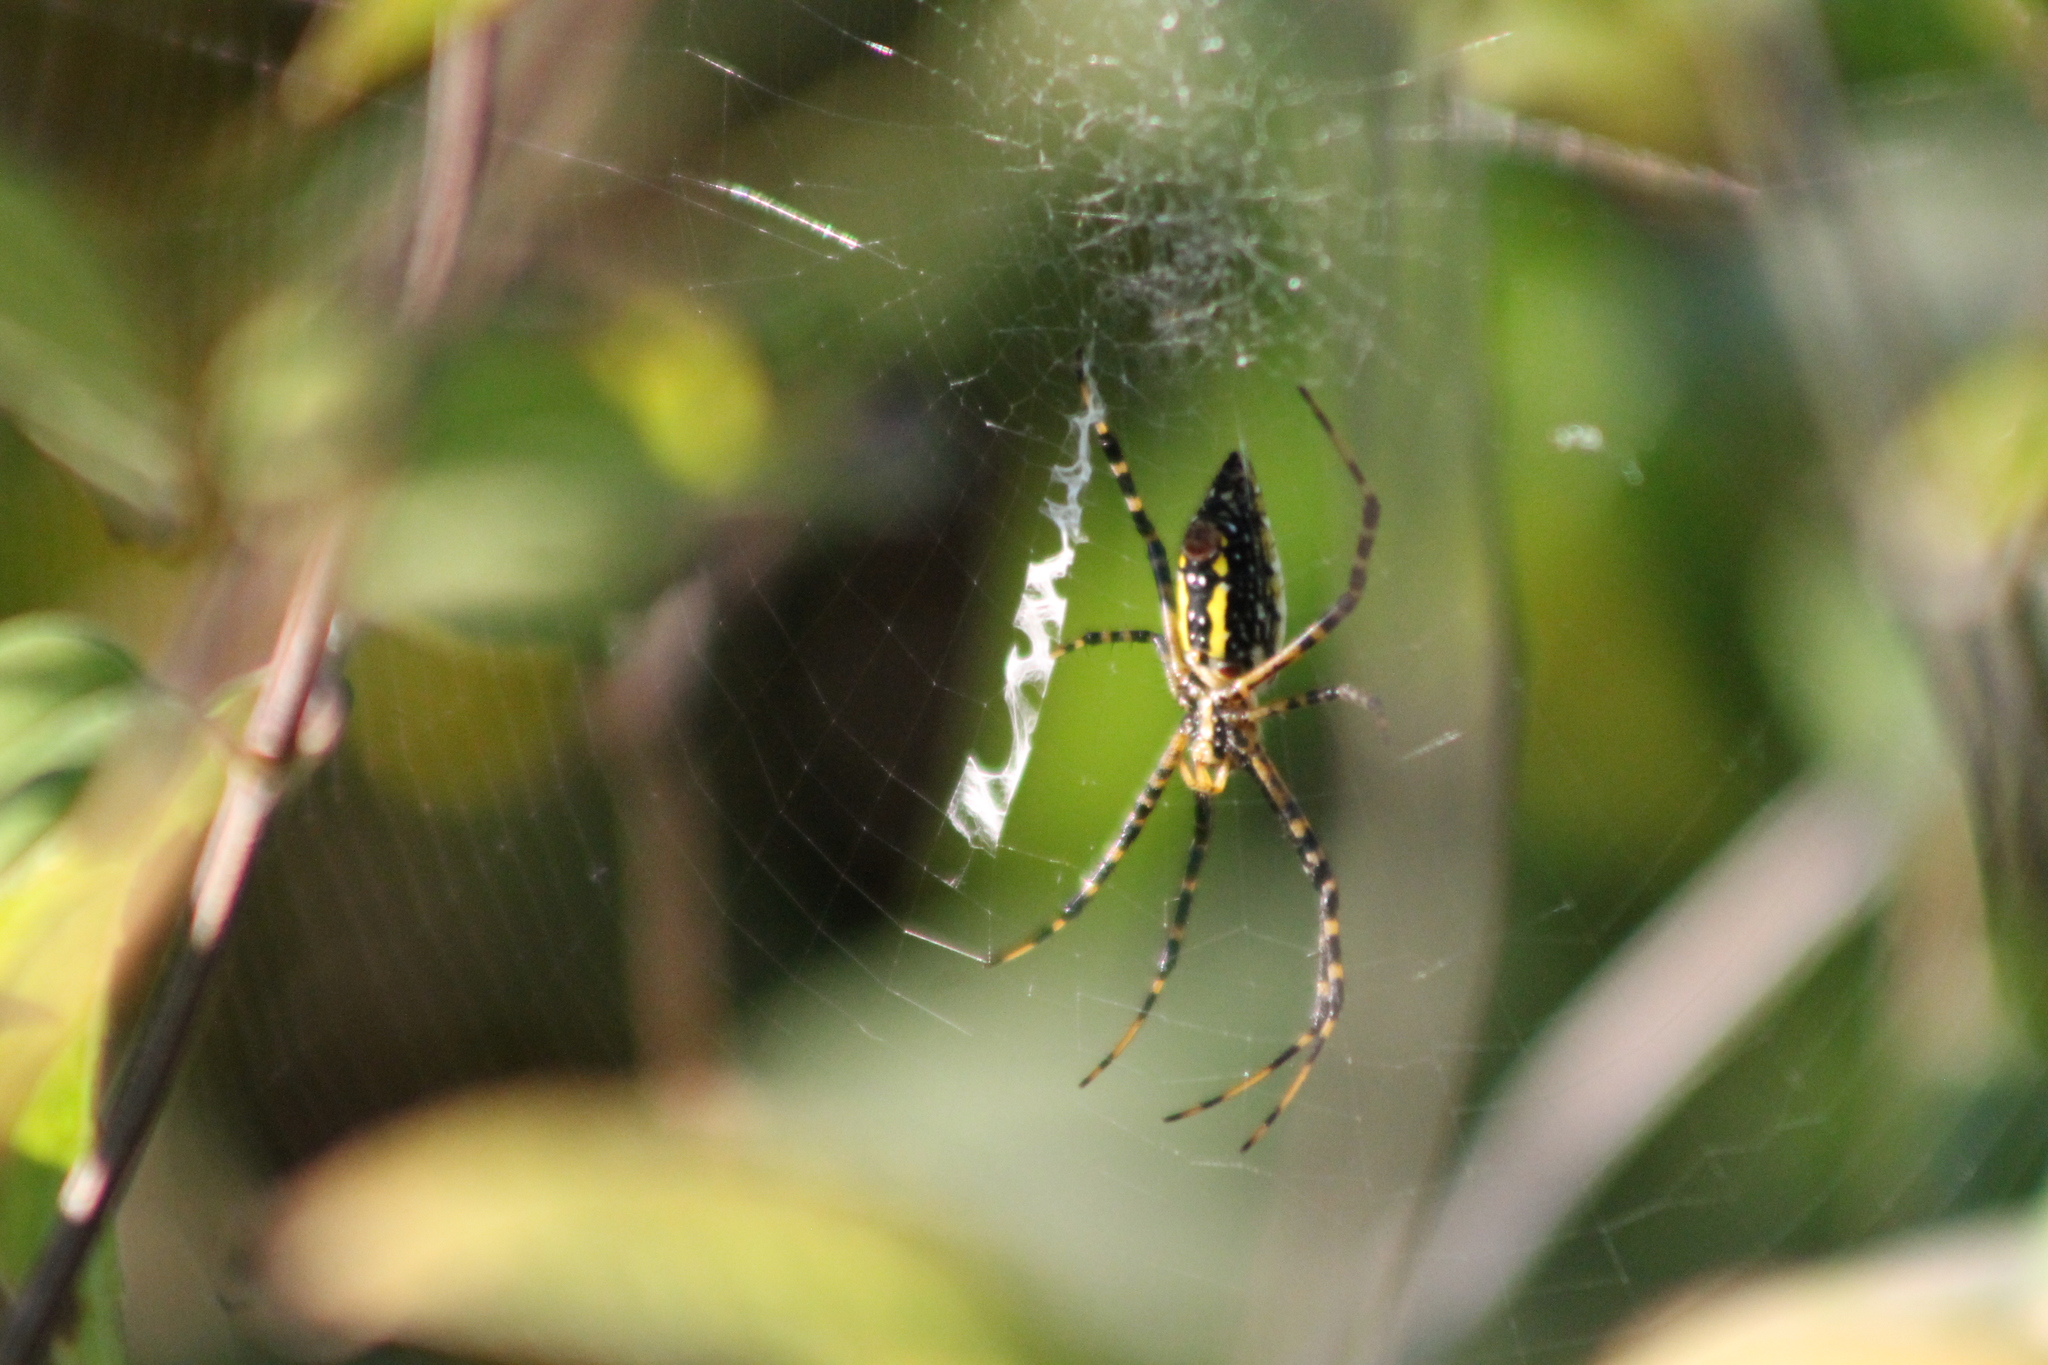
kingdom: Animalia
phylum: Arthropoda
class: Arachnida
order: Araneae
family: Araneidae
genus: Argiope
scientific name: Argiope trifasciata
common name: Banded garden spider
